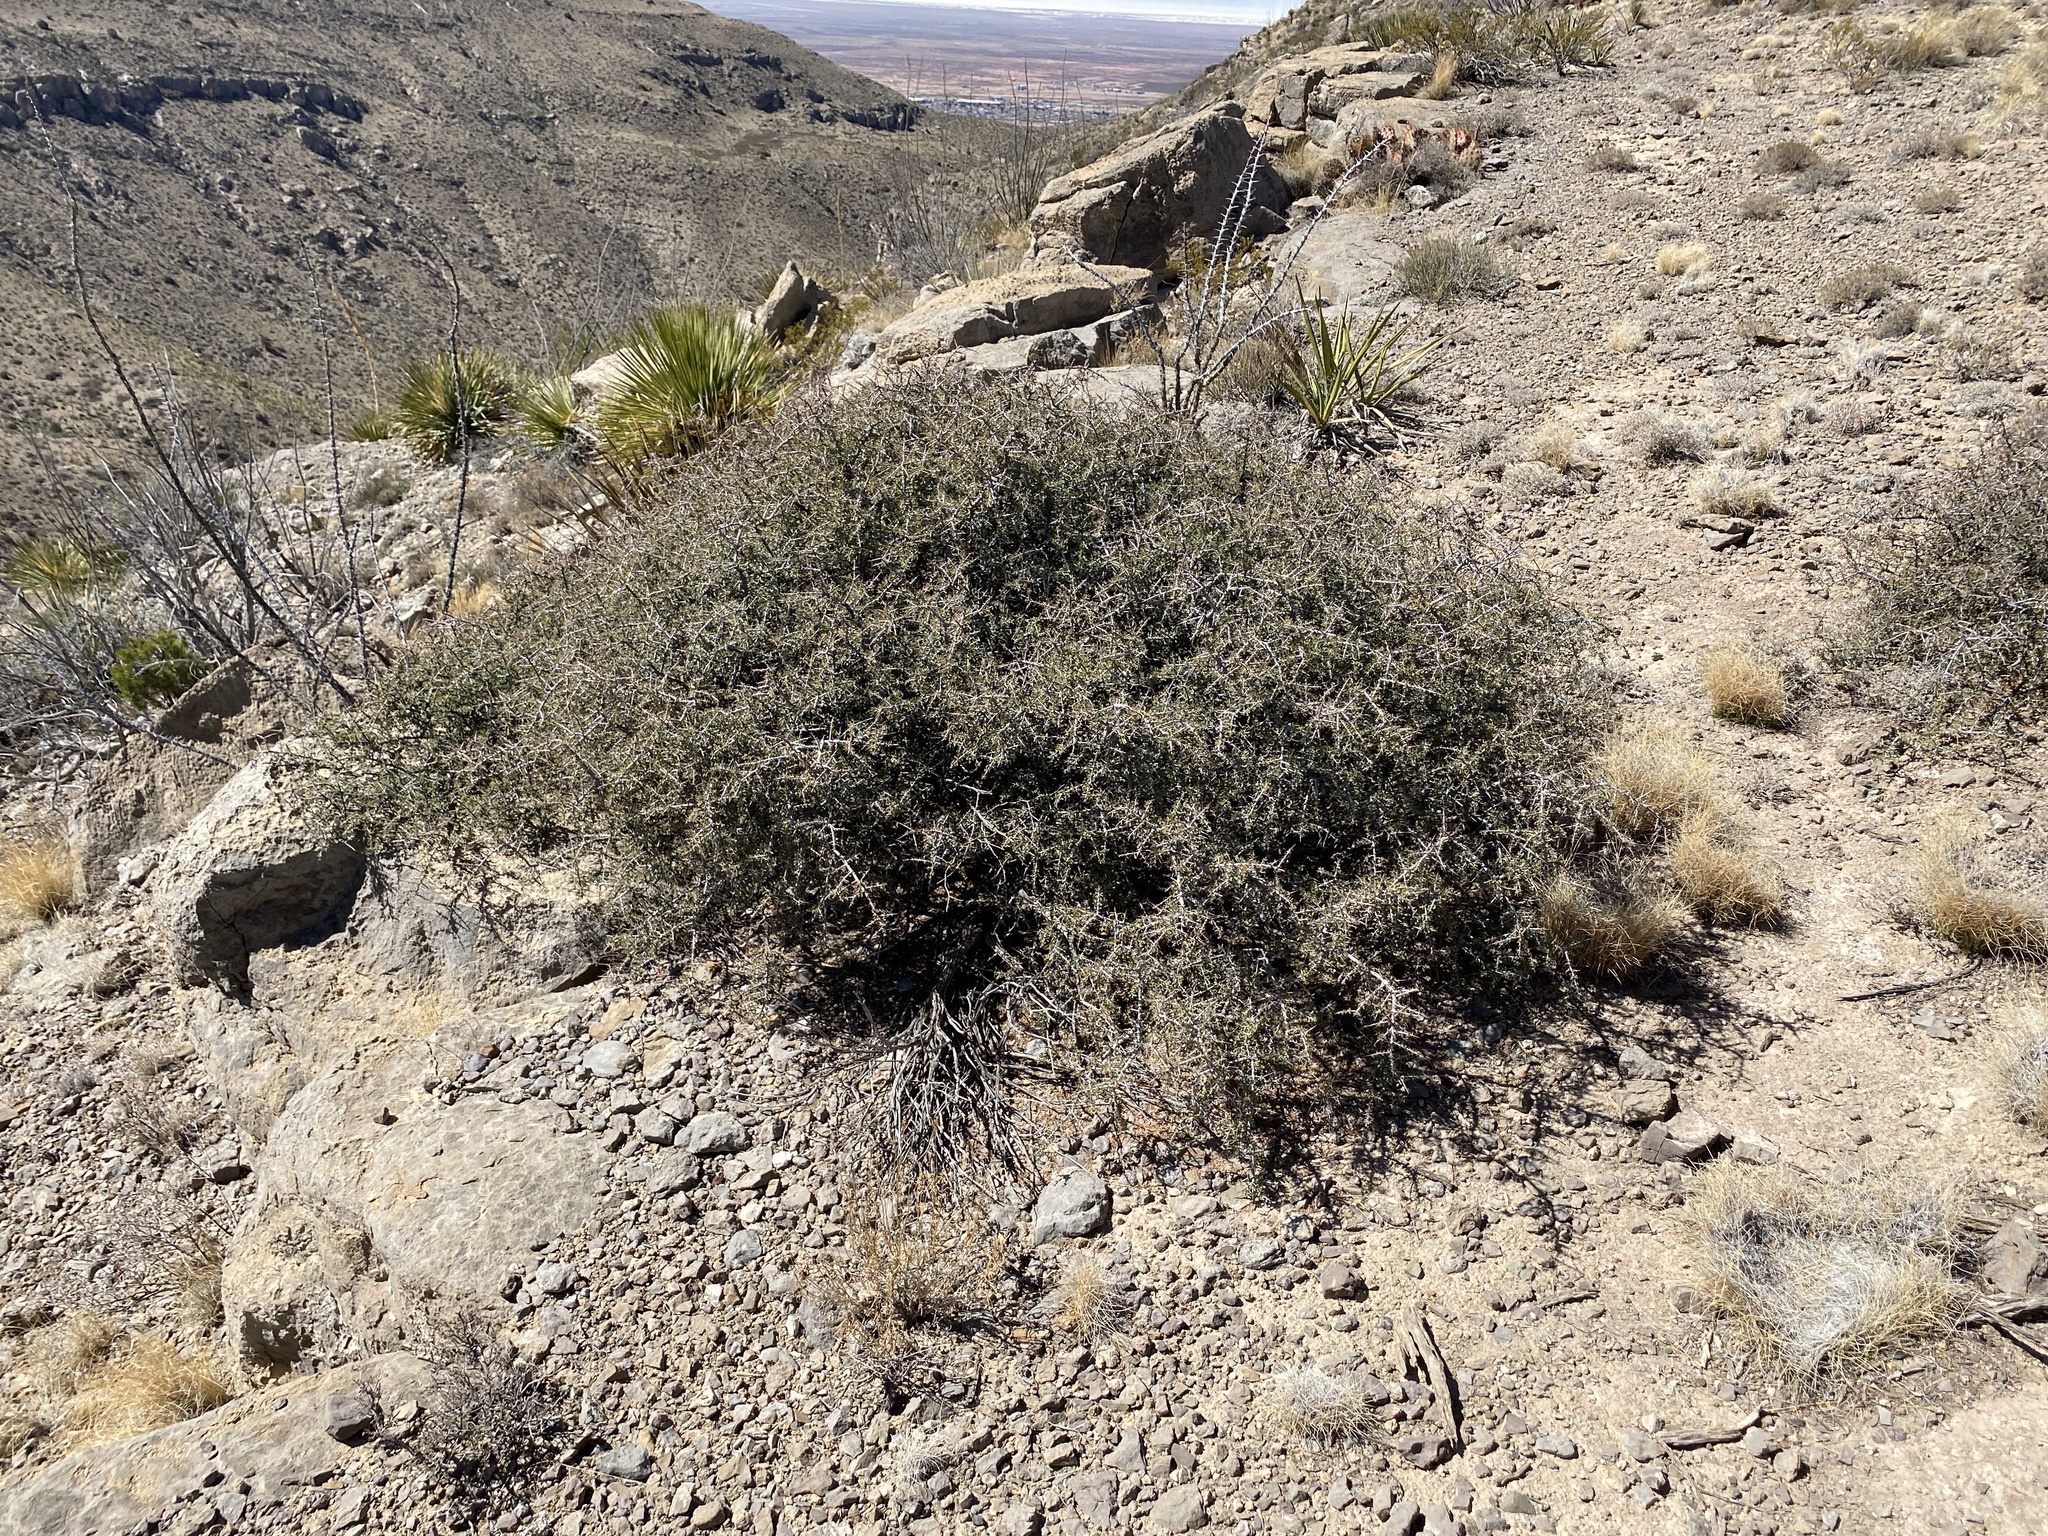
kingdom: Plantae
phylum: Tracheophyta
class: Magnoliopsida
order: Rosales
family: Rhamnaceae
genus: Condalia
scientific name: Condalia warnockii
